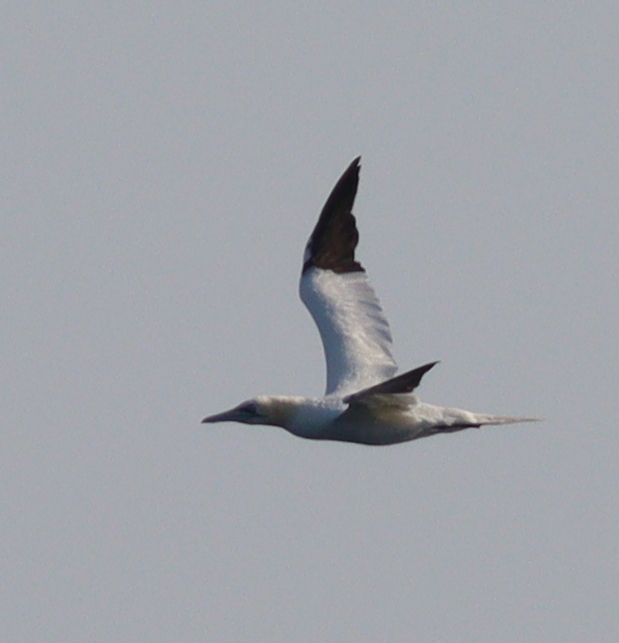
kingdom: Animalia
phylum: Chordata
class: Aves
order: Suliformes
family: Sulidae
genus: Morus
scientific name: Morus bassanus
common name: Northern gannet
